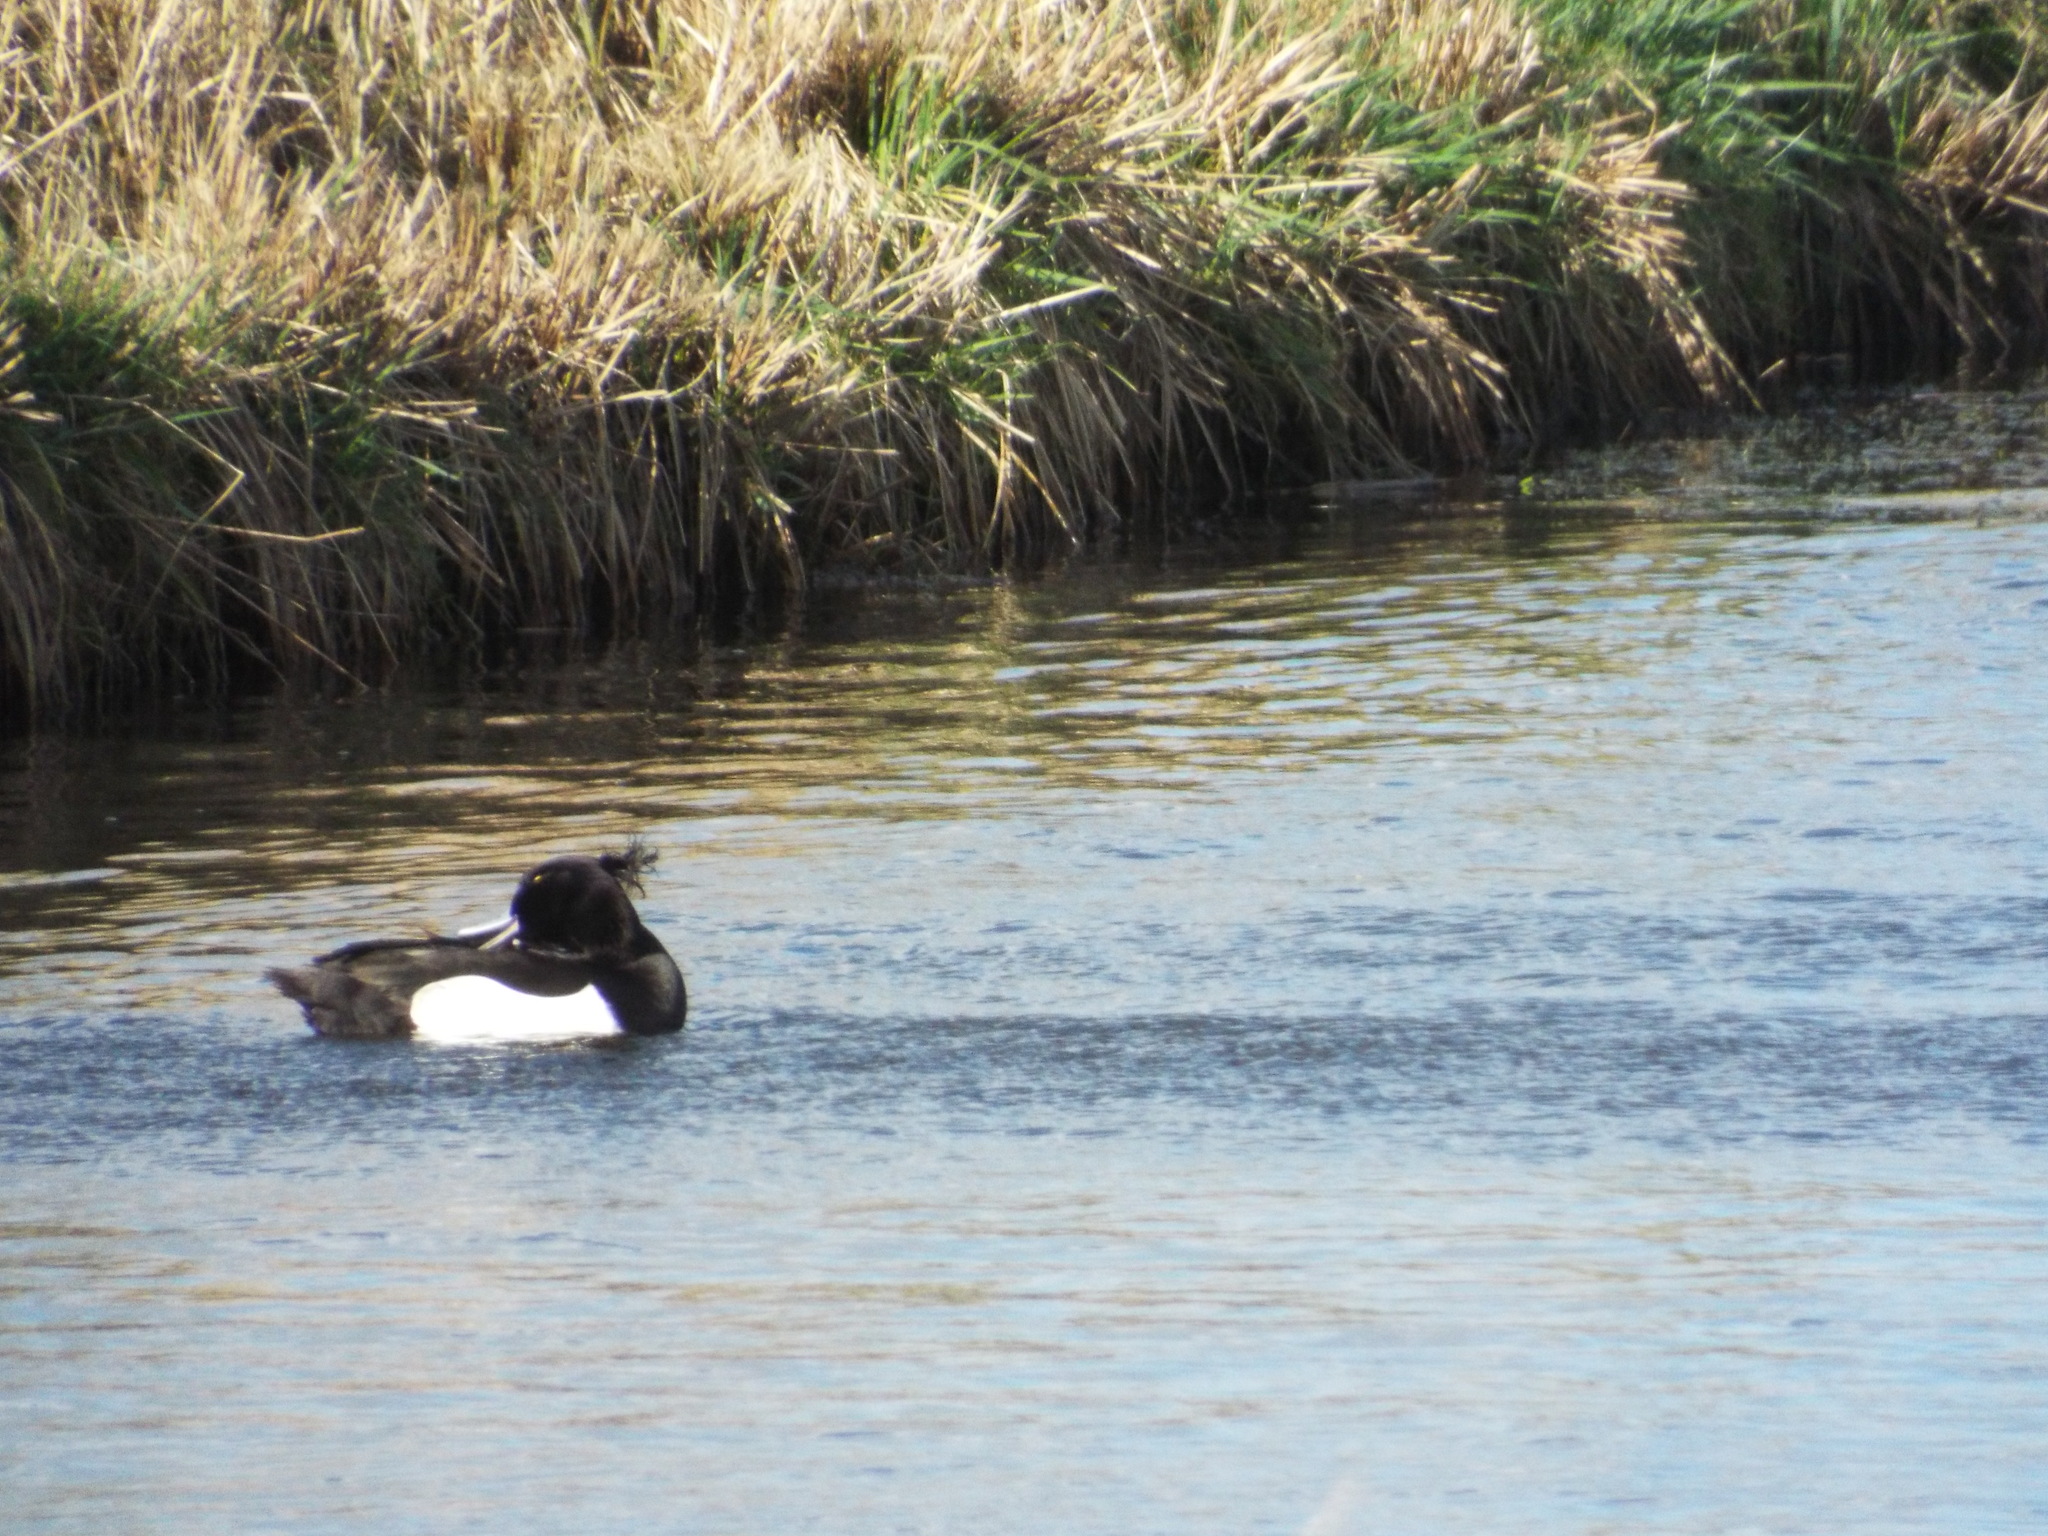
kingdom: Animalia
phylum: Chordata
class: Aves
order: Anseriformes
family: Anatidae
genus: Aythya
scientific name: Aythya fuligula
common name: Tufted duck
